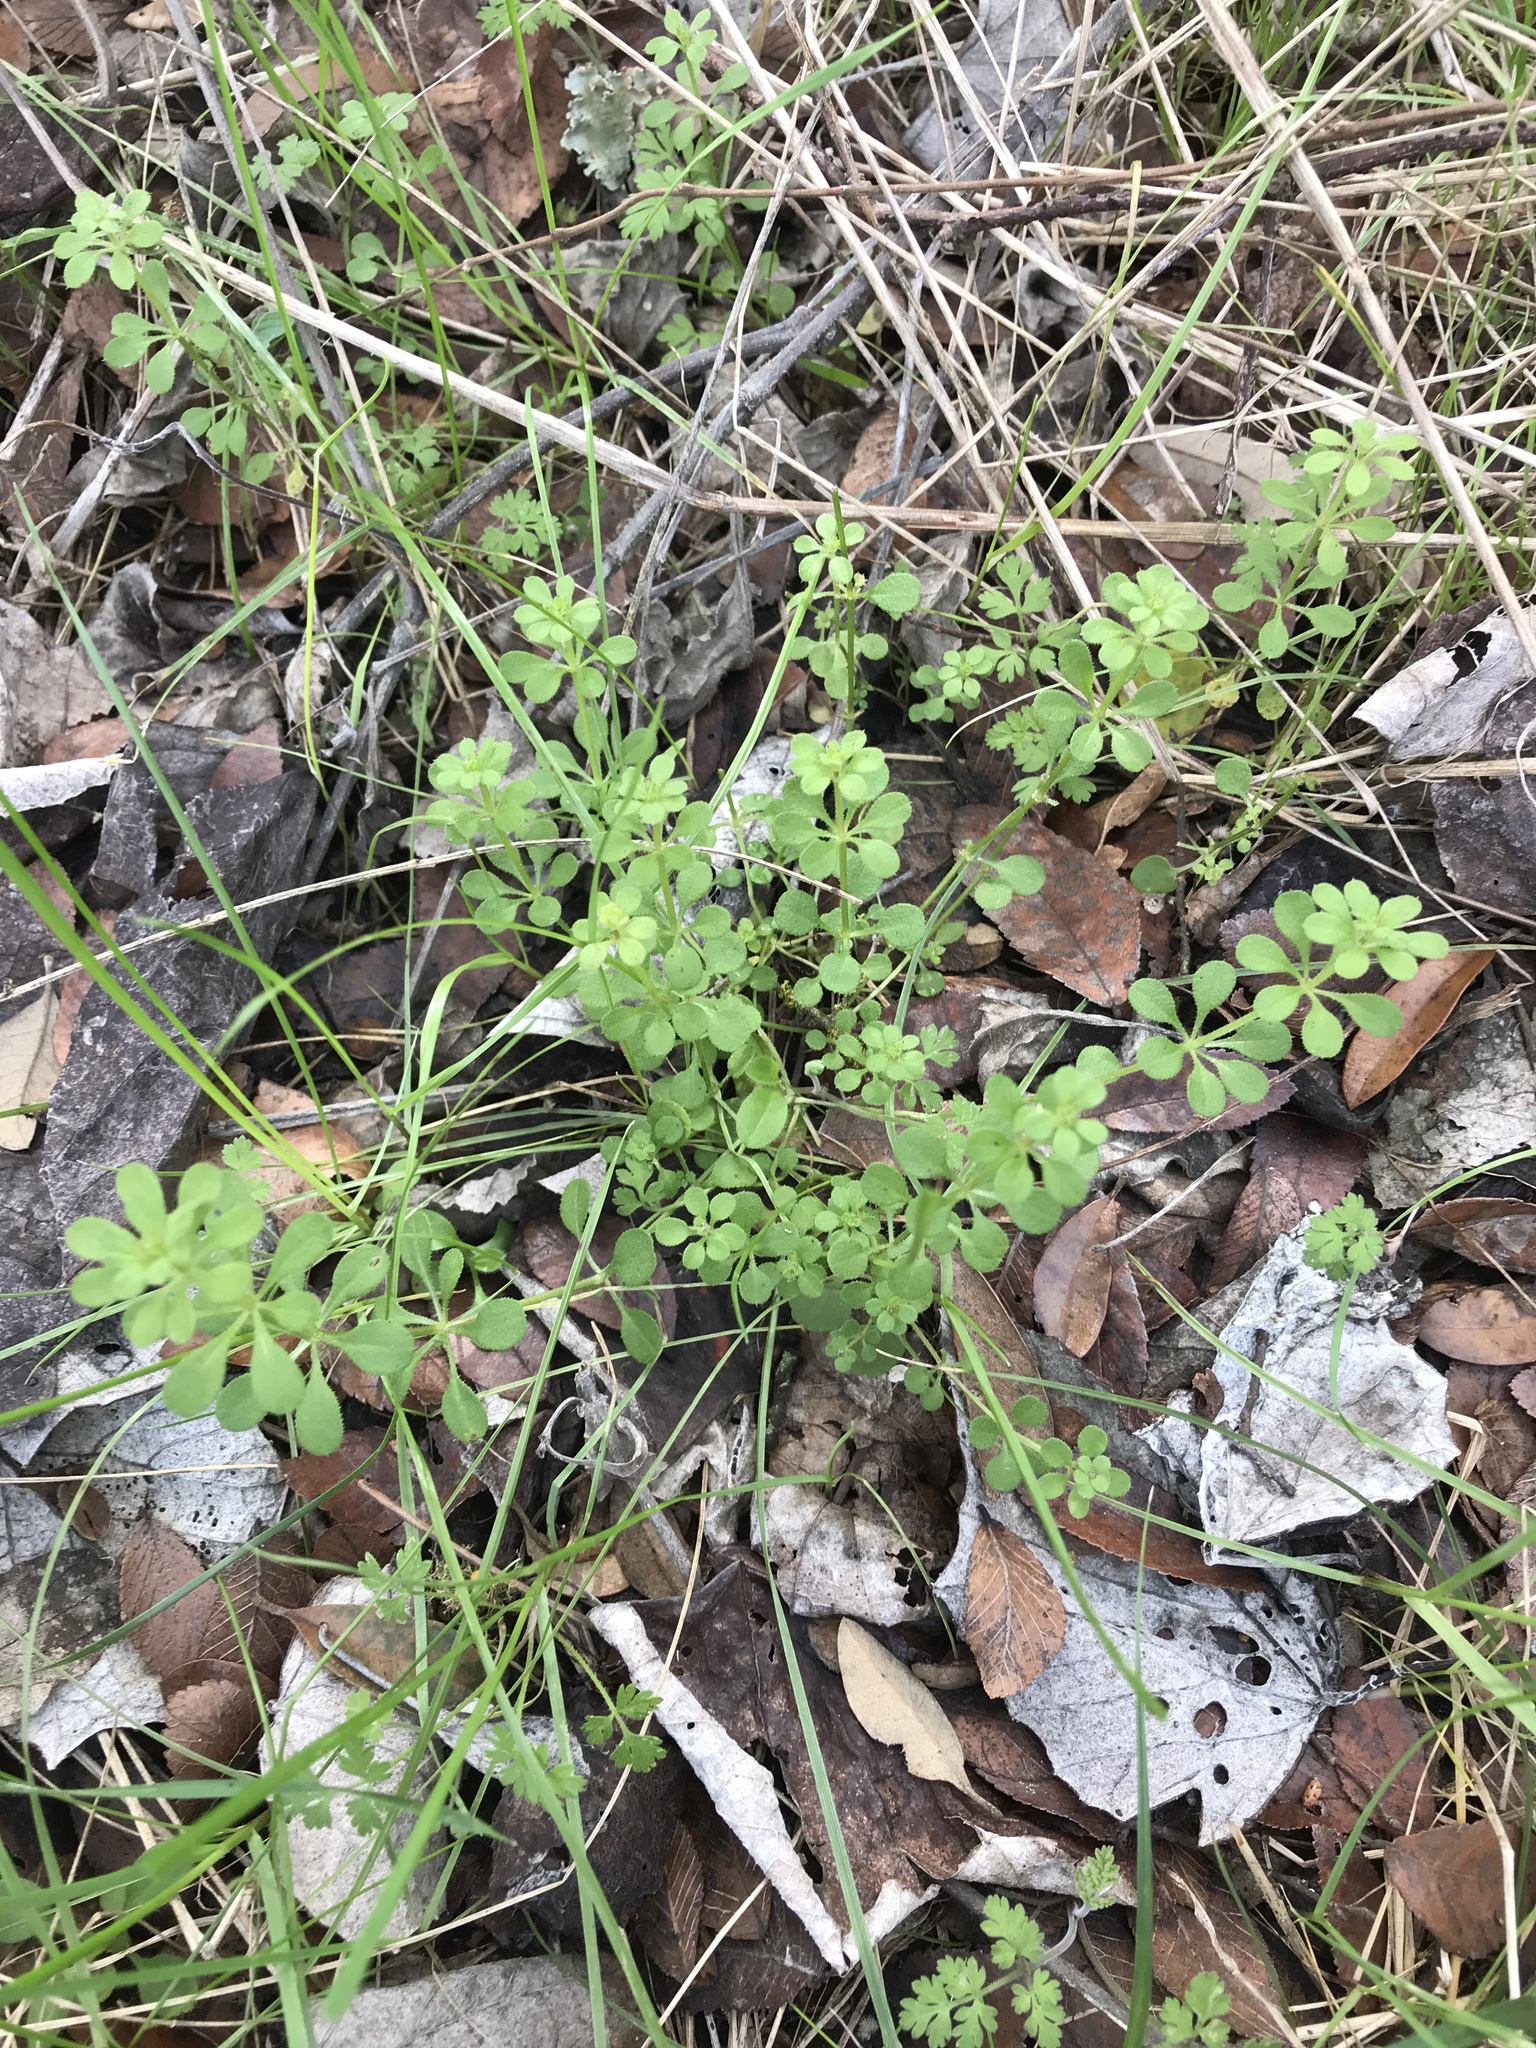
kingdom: Plantae
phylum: Tracheophyta
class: Magnoliopsida
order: Gentianales
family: Rubiaceae
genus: Galium
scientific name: Galium aparine
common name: Cleavers
